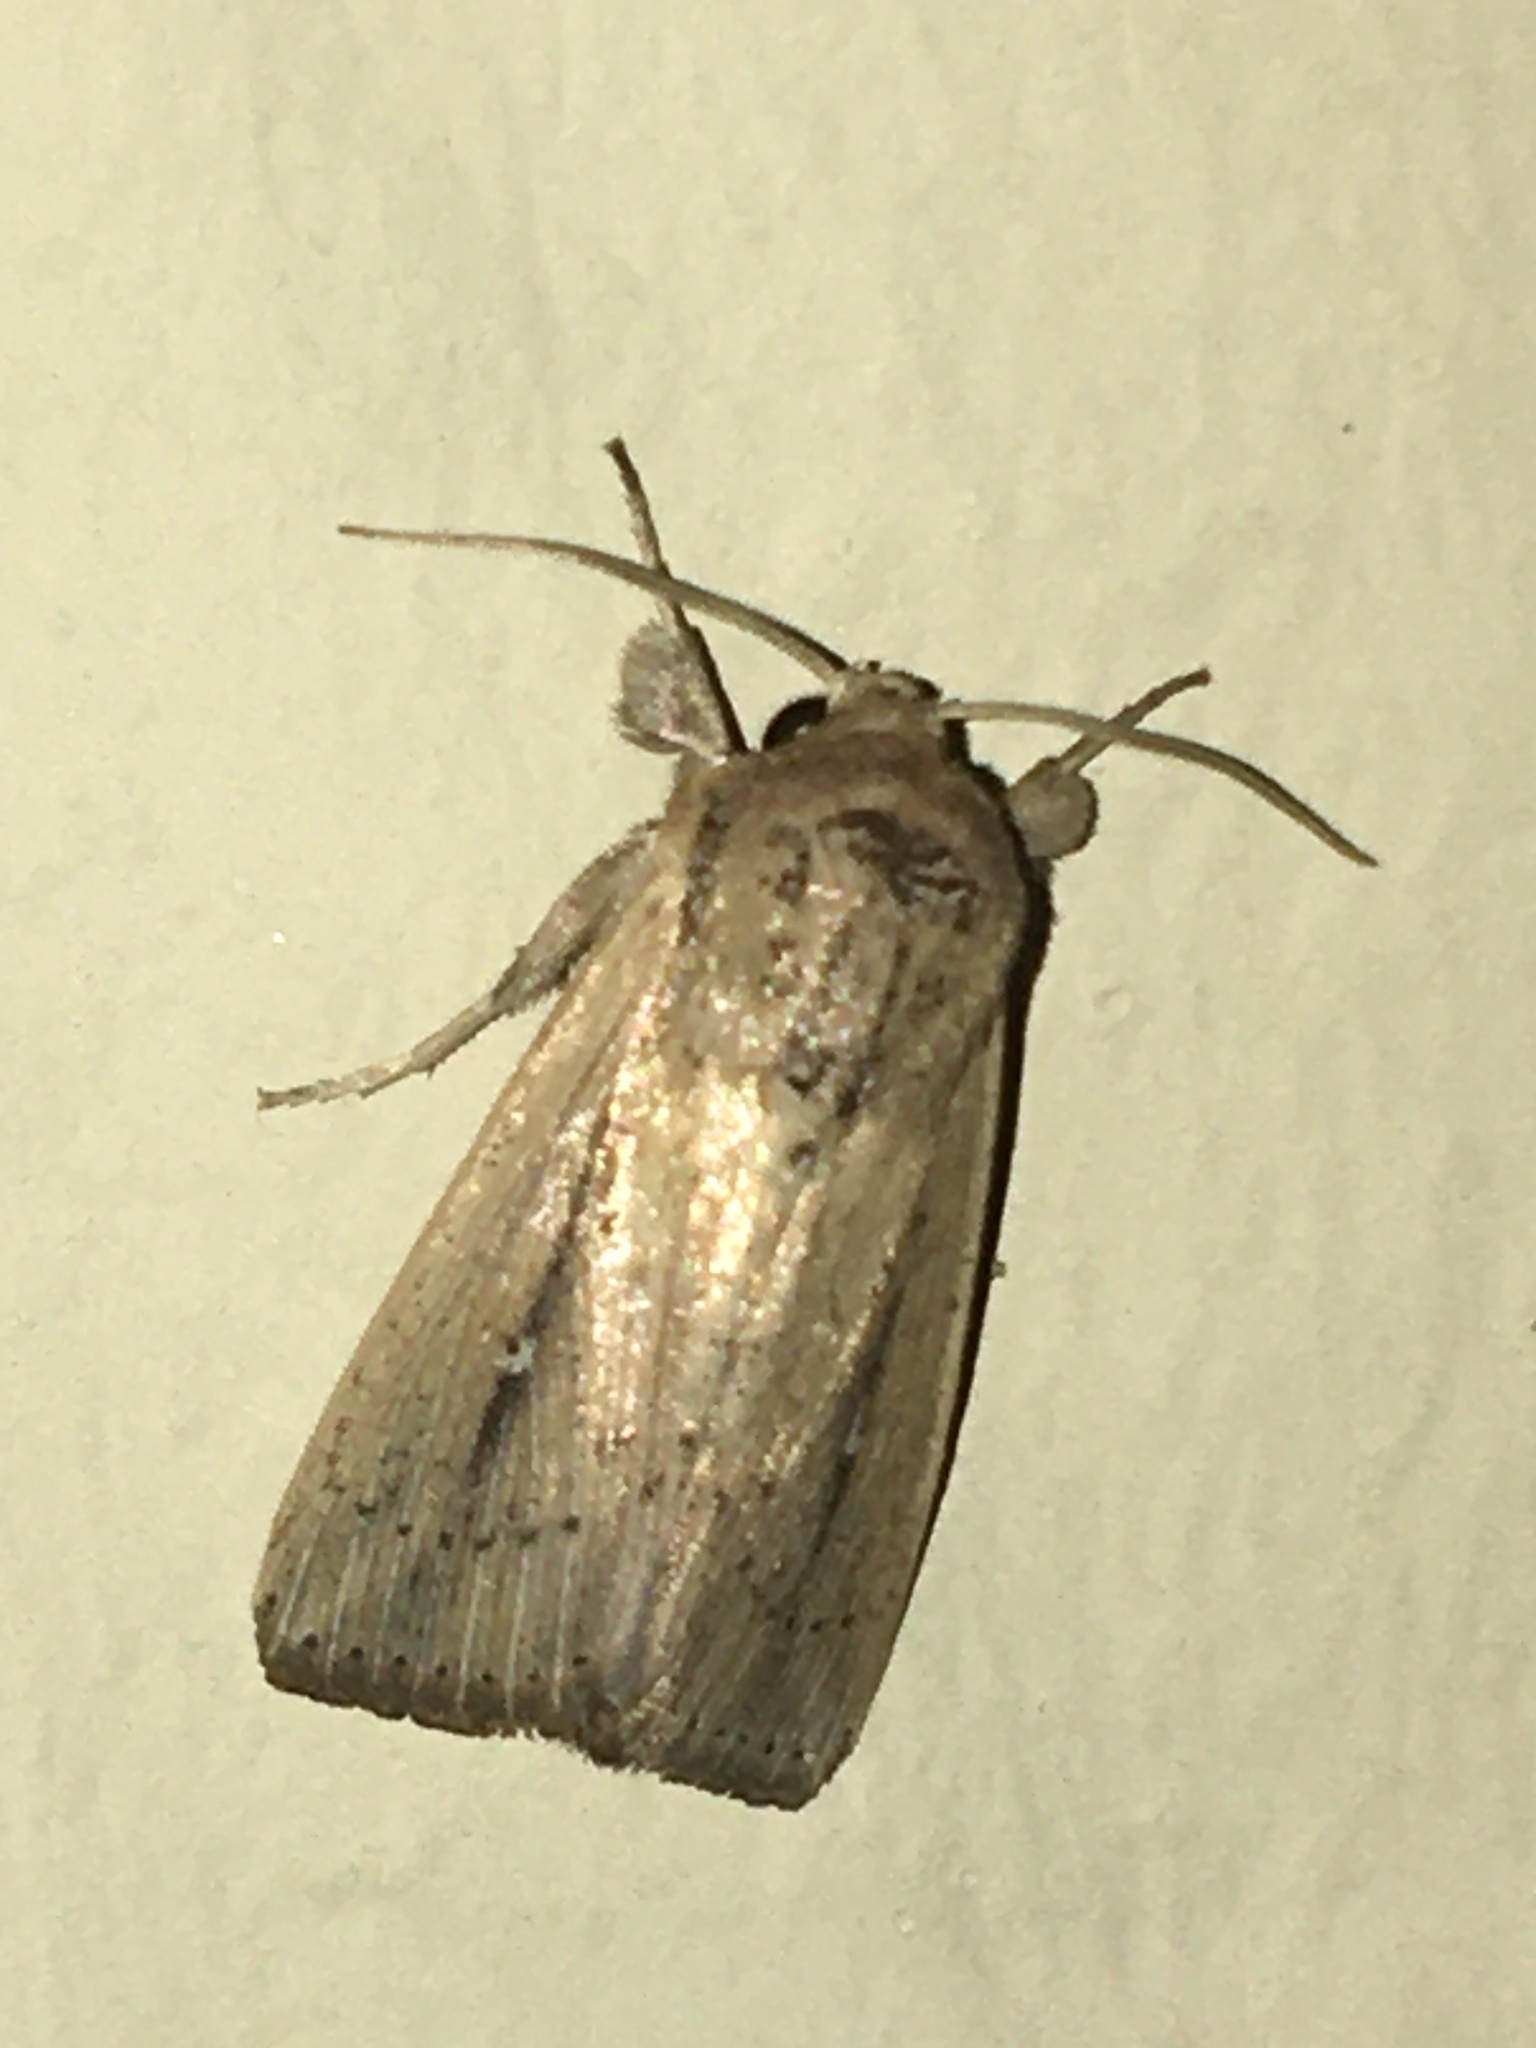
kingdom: Animalia
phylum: Arthropoda
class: Insecta
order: Lepidoptera
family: Noctuidae
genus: Leucania
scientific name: Leucania incognita
